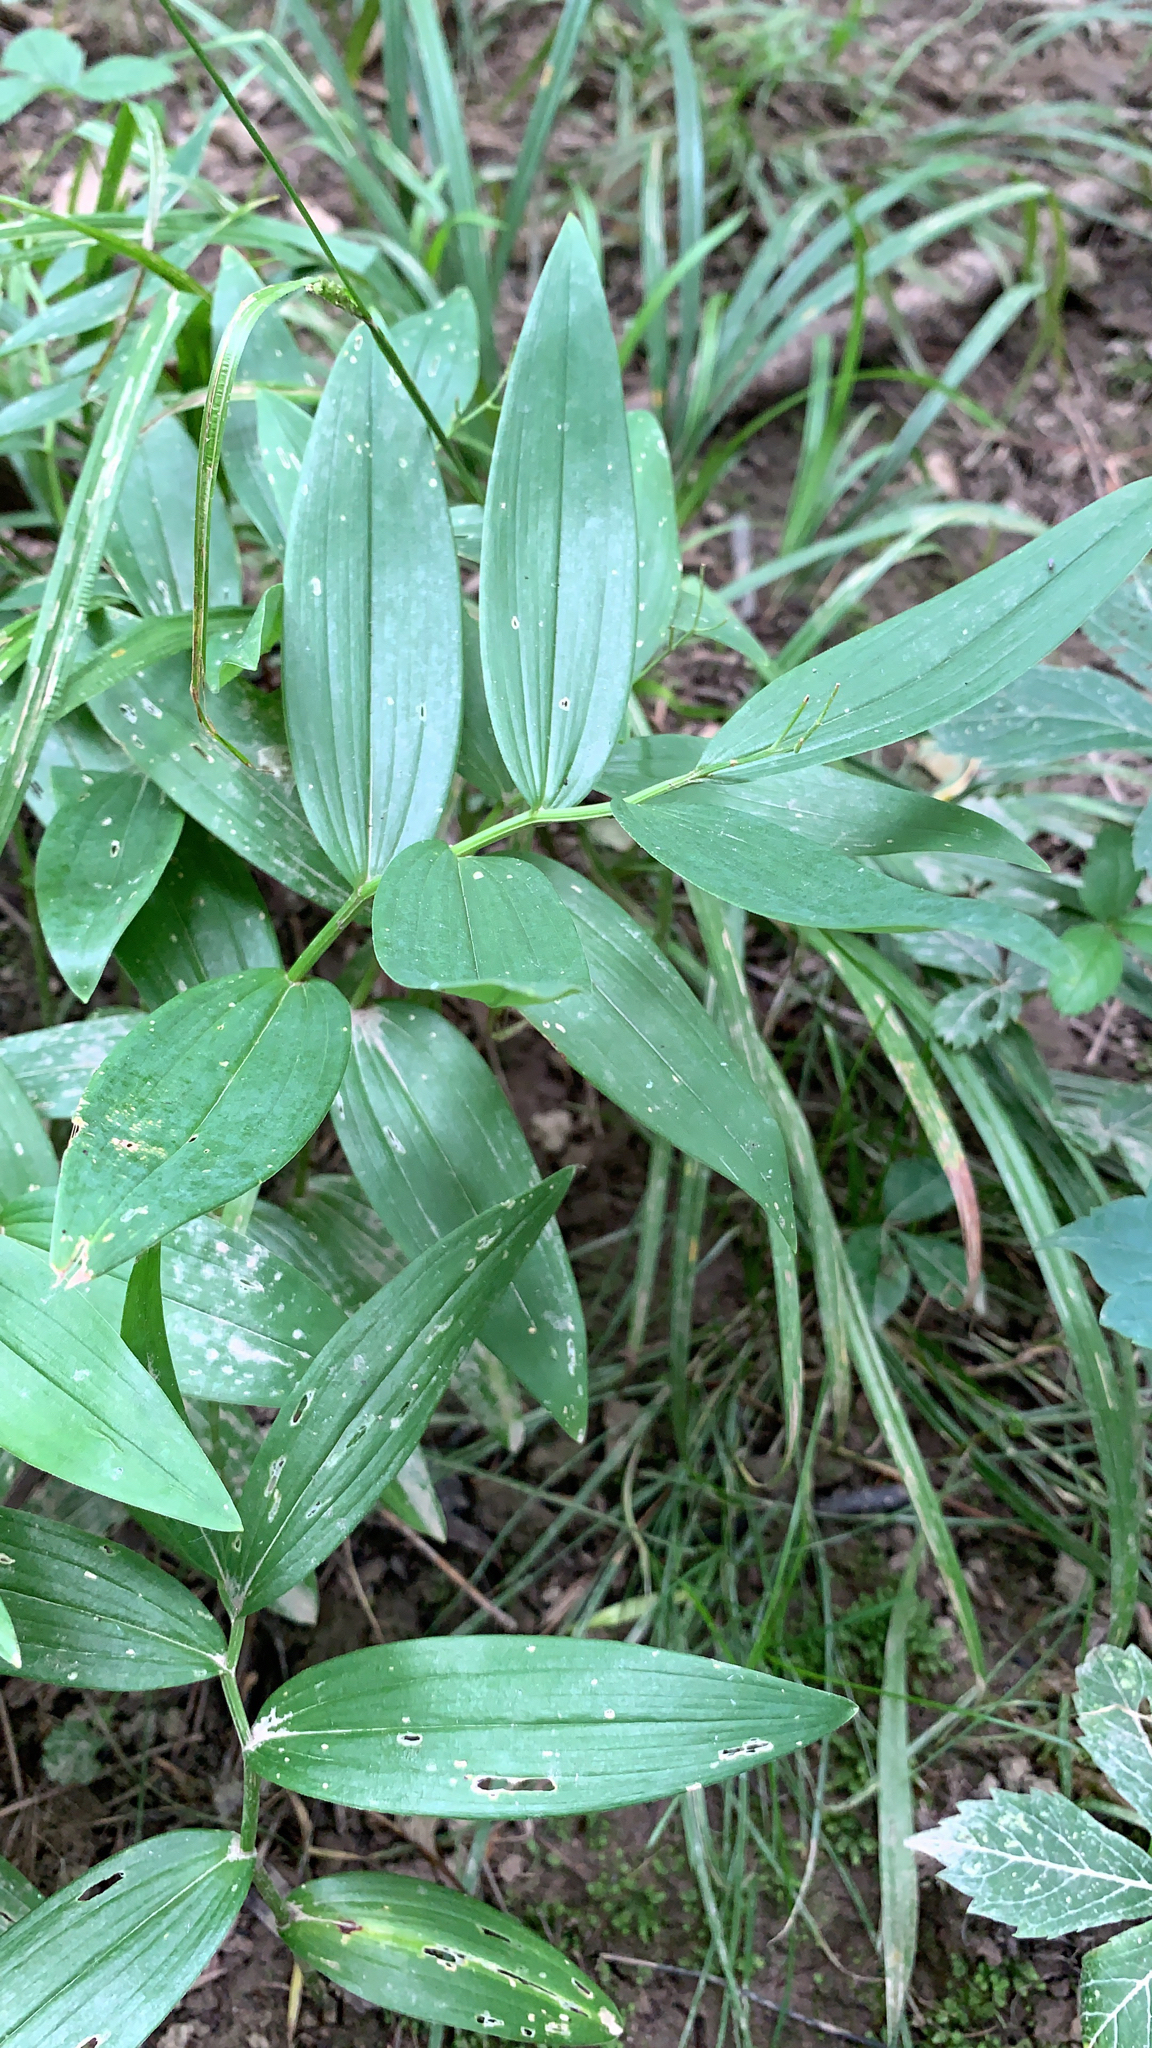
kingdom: Plantae
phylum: Tracheophyta
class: Liliopsida
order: Asparagales
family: Asparagaceae
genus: Maianthemum
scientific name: Maianthemum stellatum
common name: Little false solomon's seal
